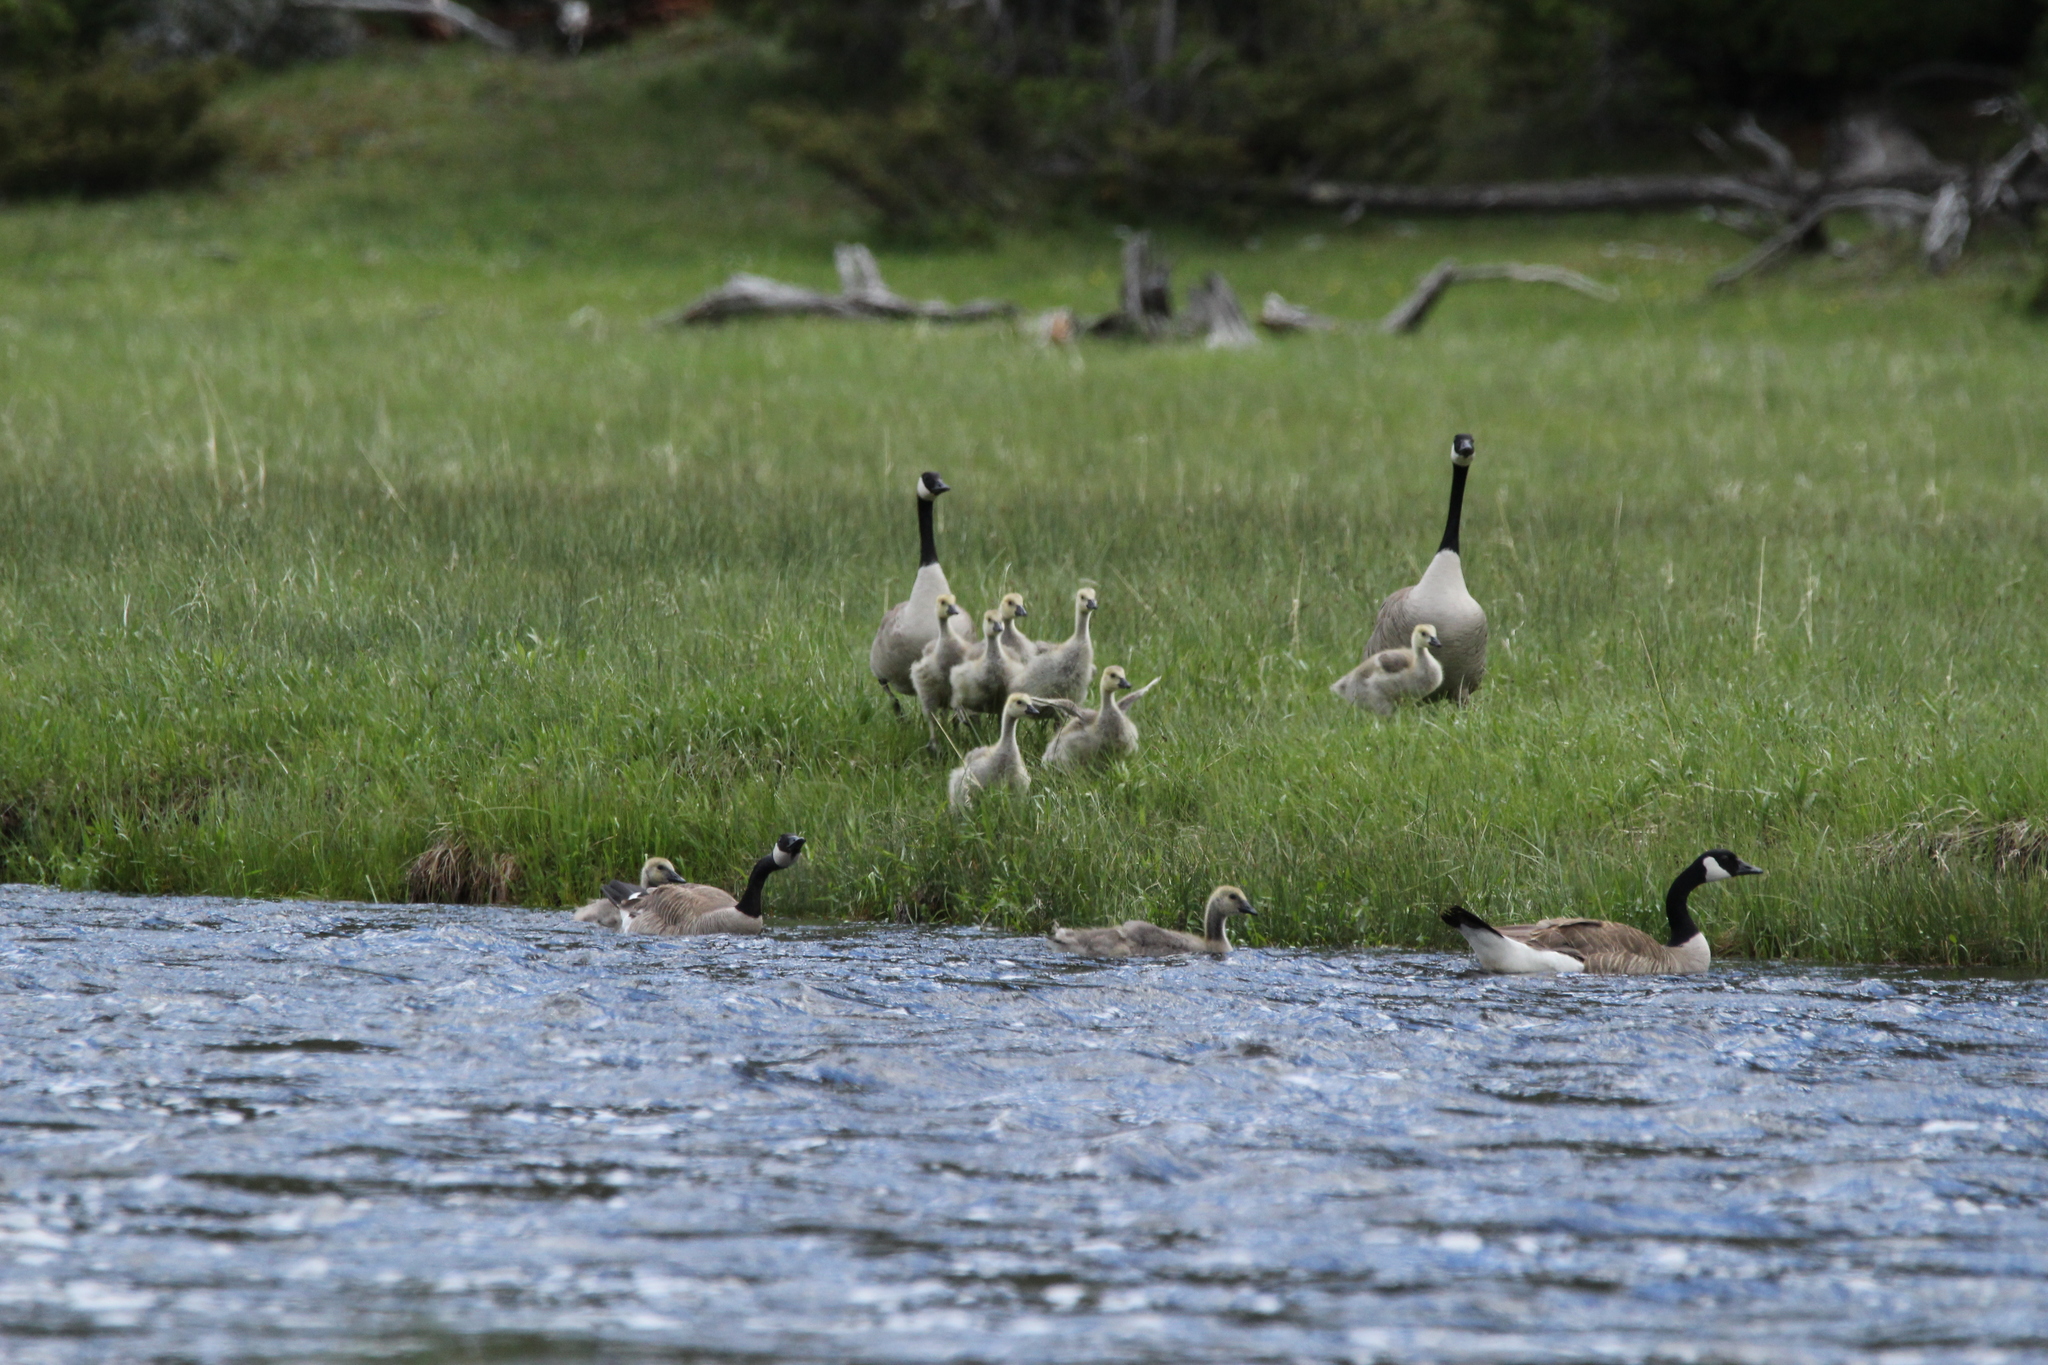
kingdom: Animalia
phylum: Chordata
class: Aves
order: Anseriformes
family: Anatidae
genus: Branta
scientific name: Branta canadensis
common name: Canada goose
